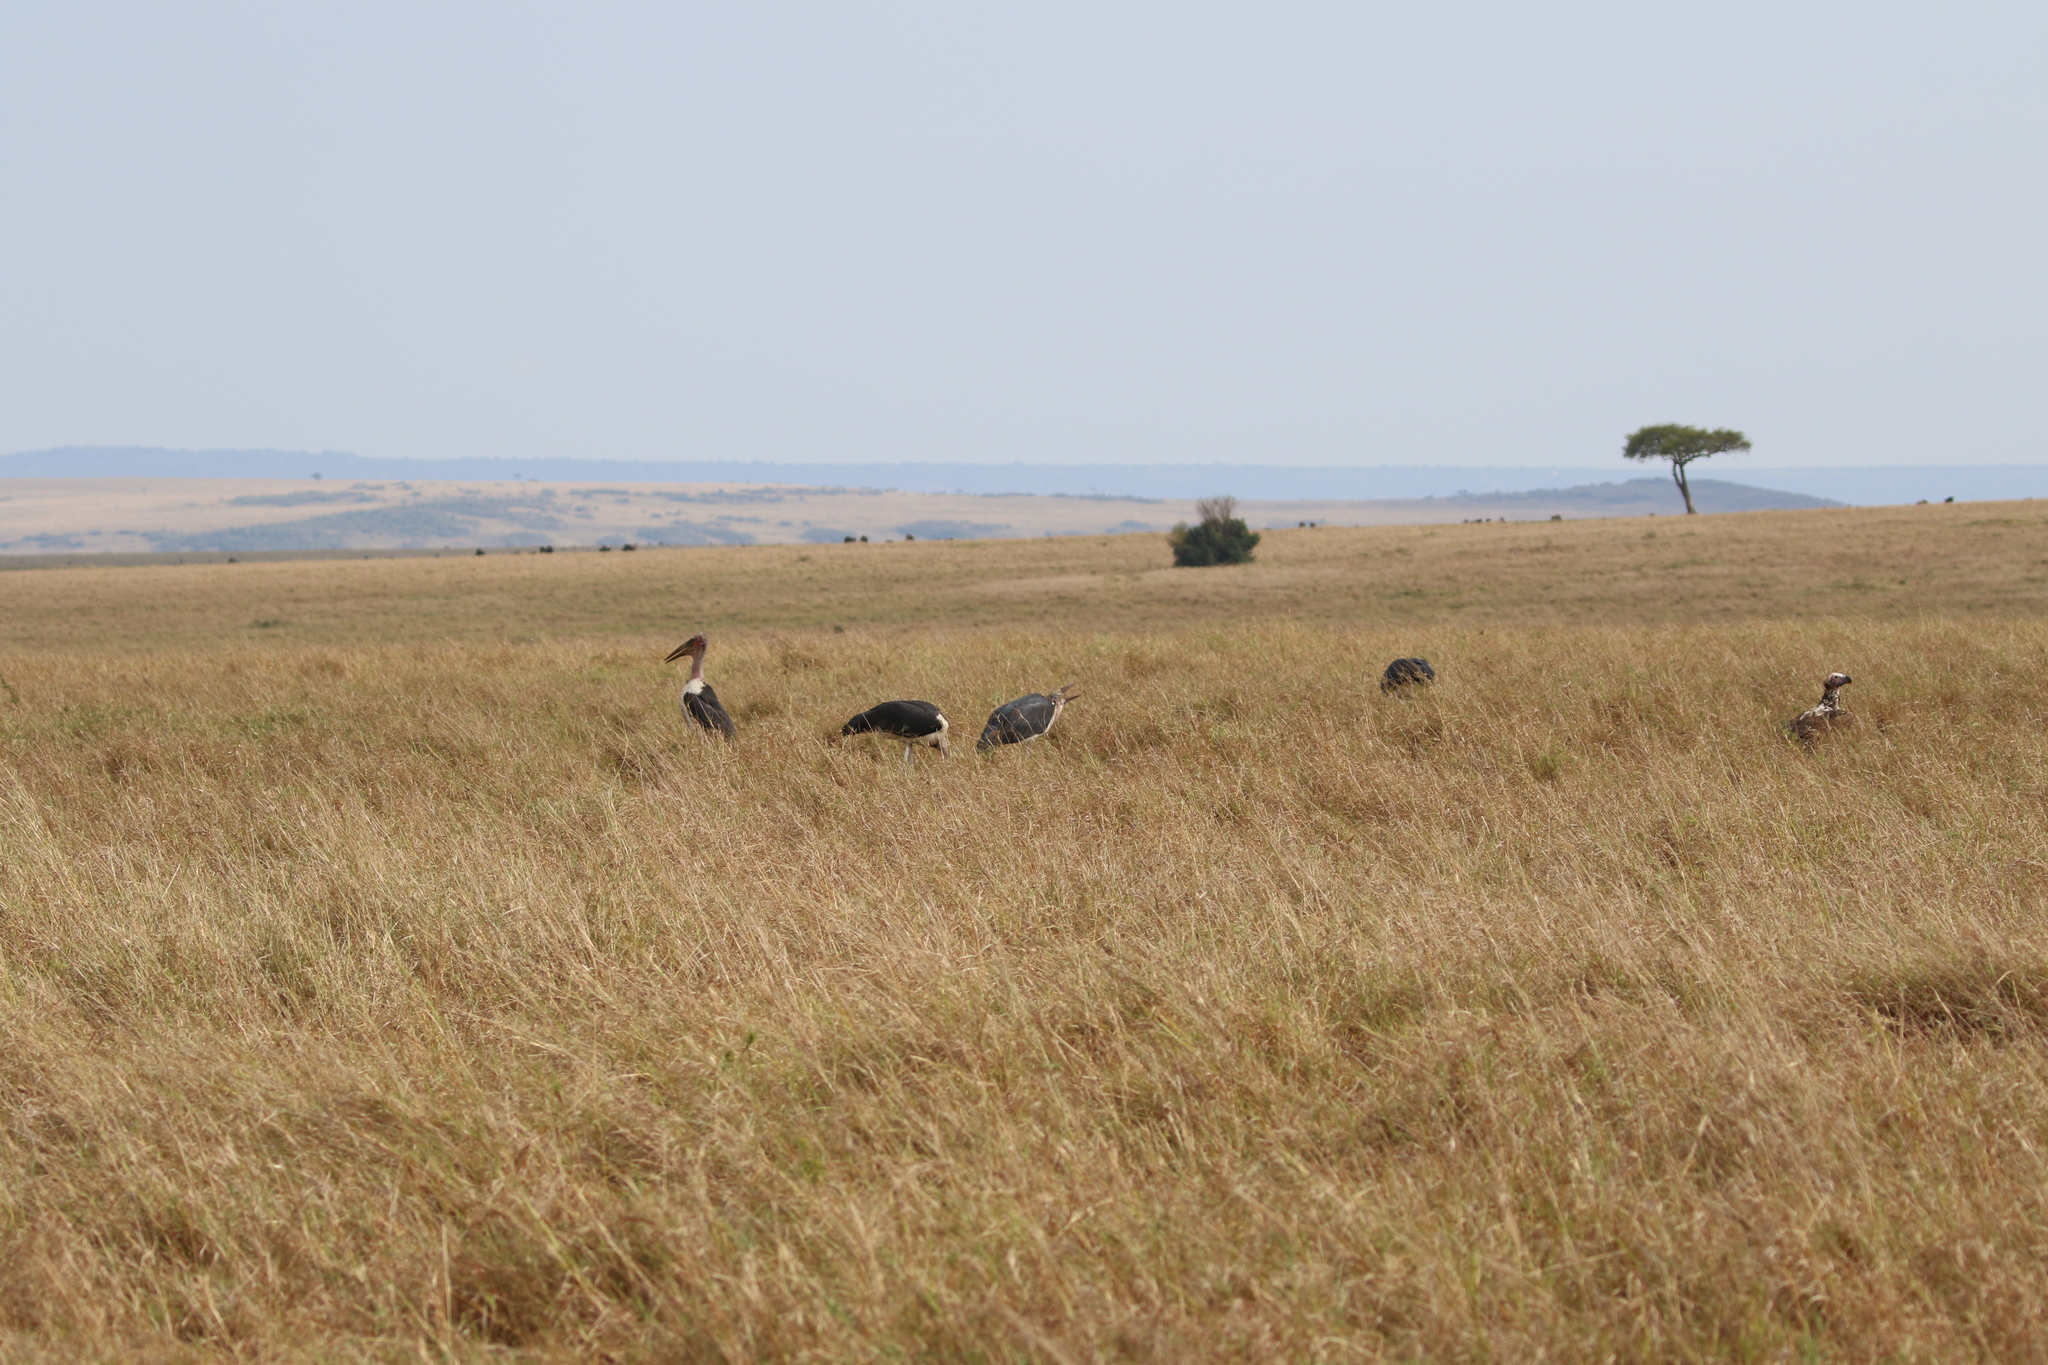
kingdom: Animalia
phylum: Chordata
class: Aves
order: Ciconiiformes
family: Ciconiidae
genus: Leptoptilos
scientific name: Leptoptilos crumenifer
